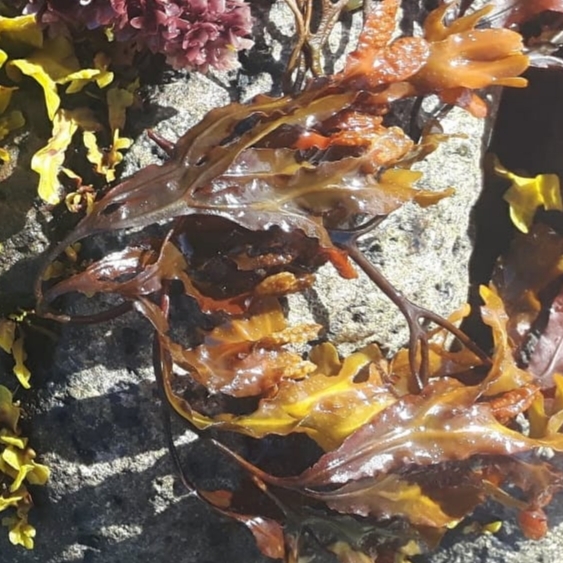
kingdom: Chromista
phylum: Ochrophyta
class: Phaeophyceae
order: Fucales
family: Fucaceae
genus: Fucus
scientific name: Fucus spiralis
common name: Spiral wrack
